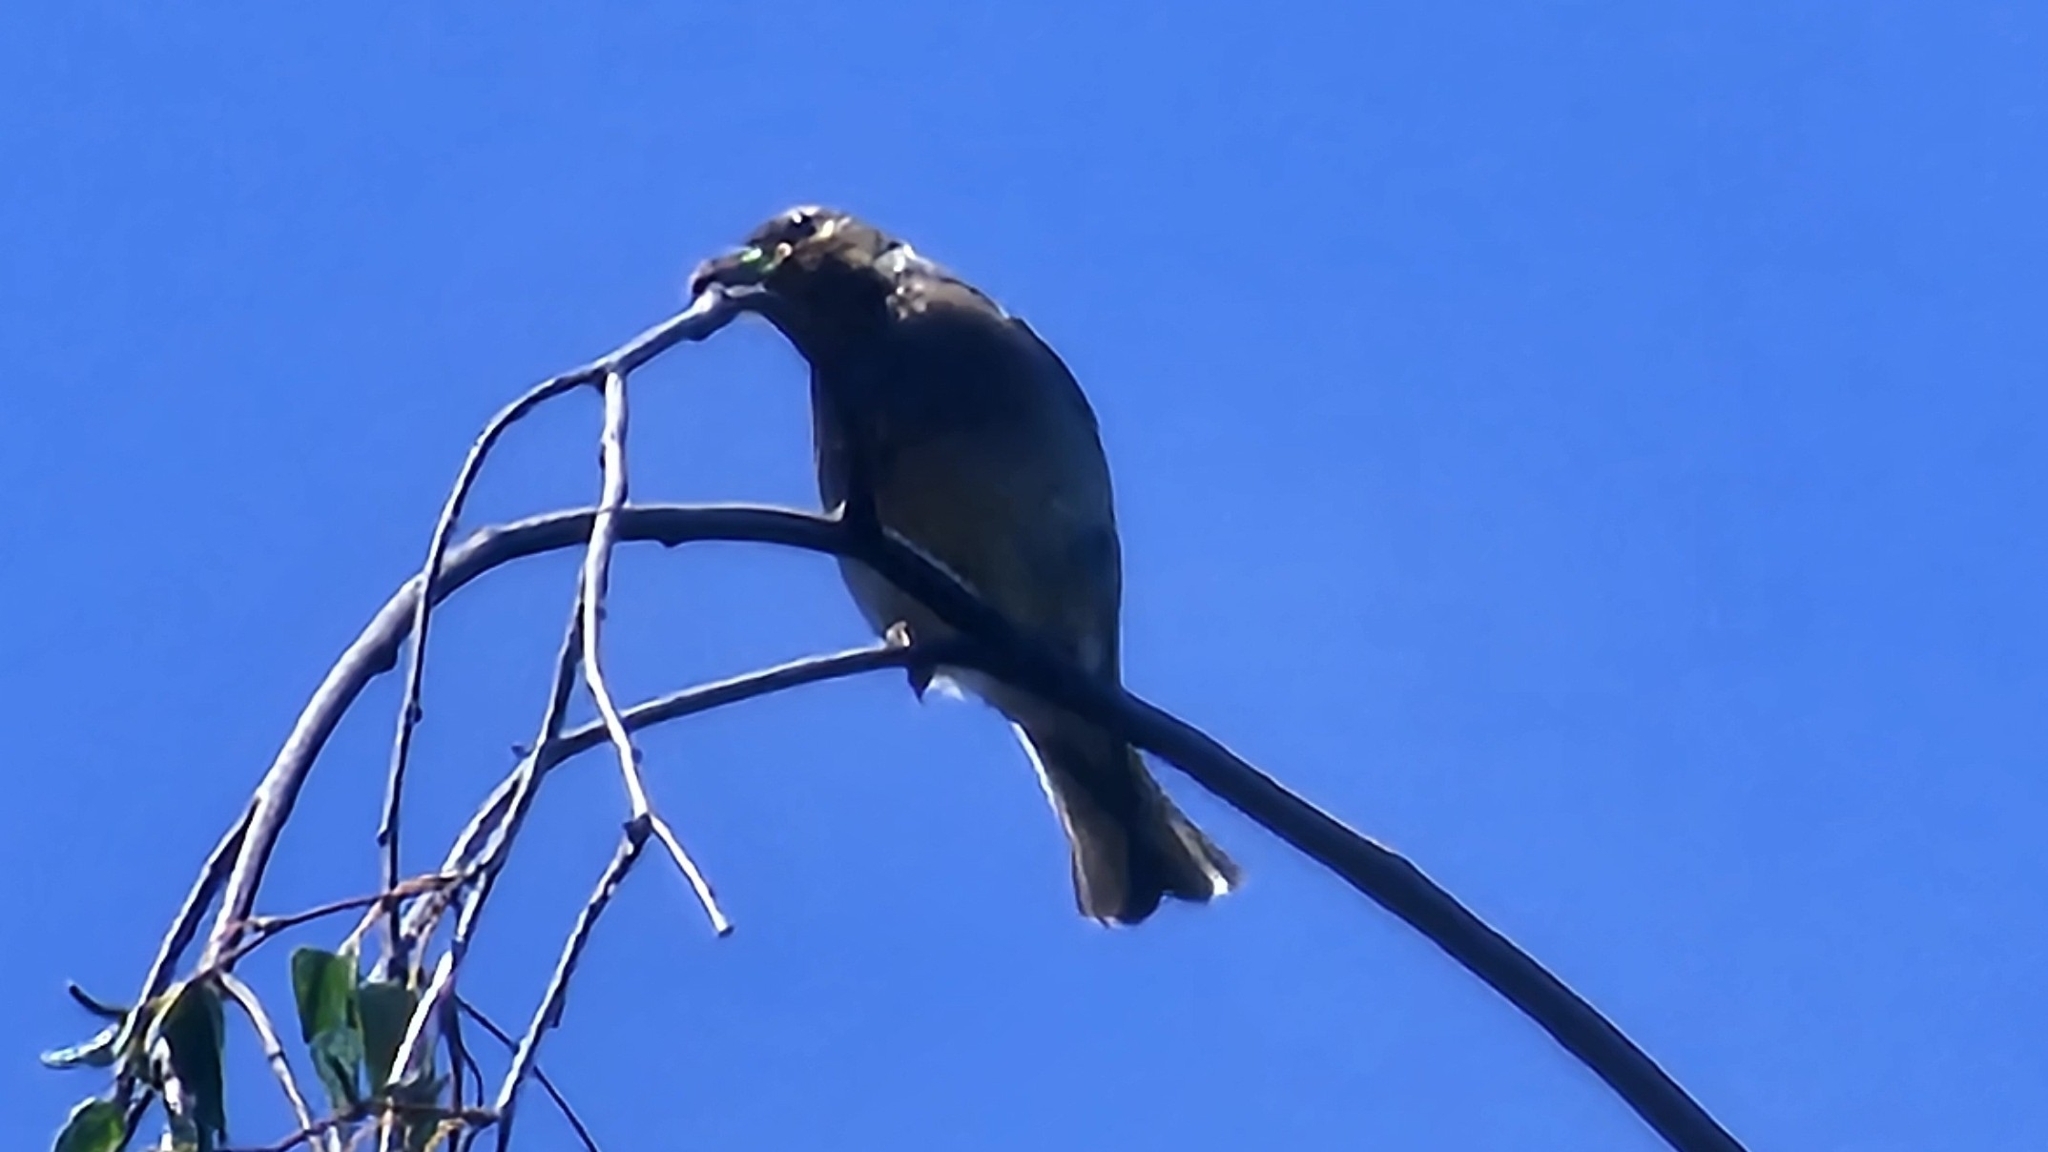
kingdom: Animalia
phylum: Chordata
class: Aves
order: Passeriformes
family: Fringillidae
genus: Fringilla
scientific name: Fringilla coelebs
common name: Common chaffinch
